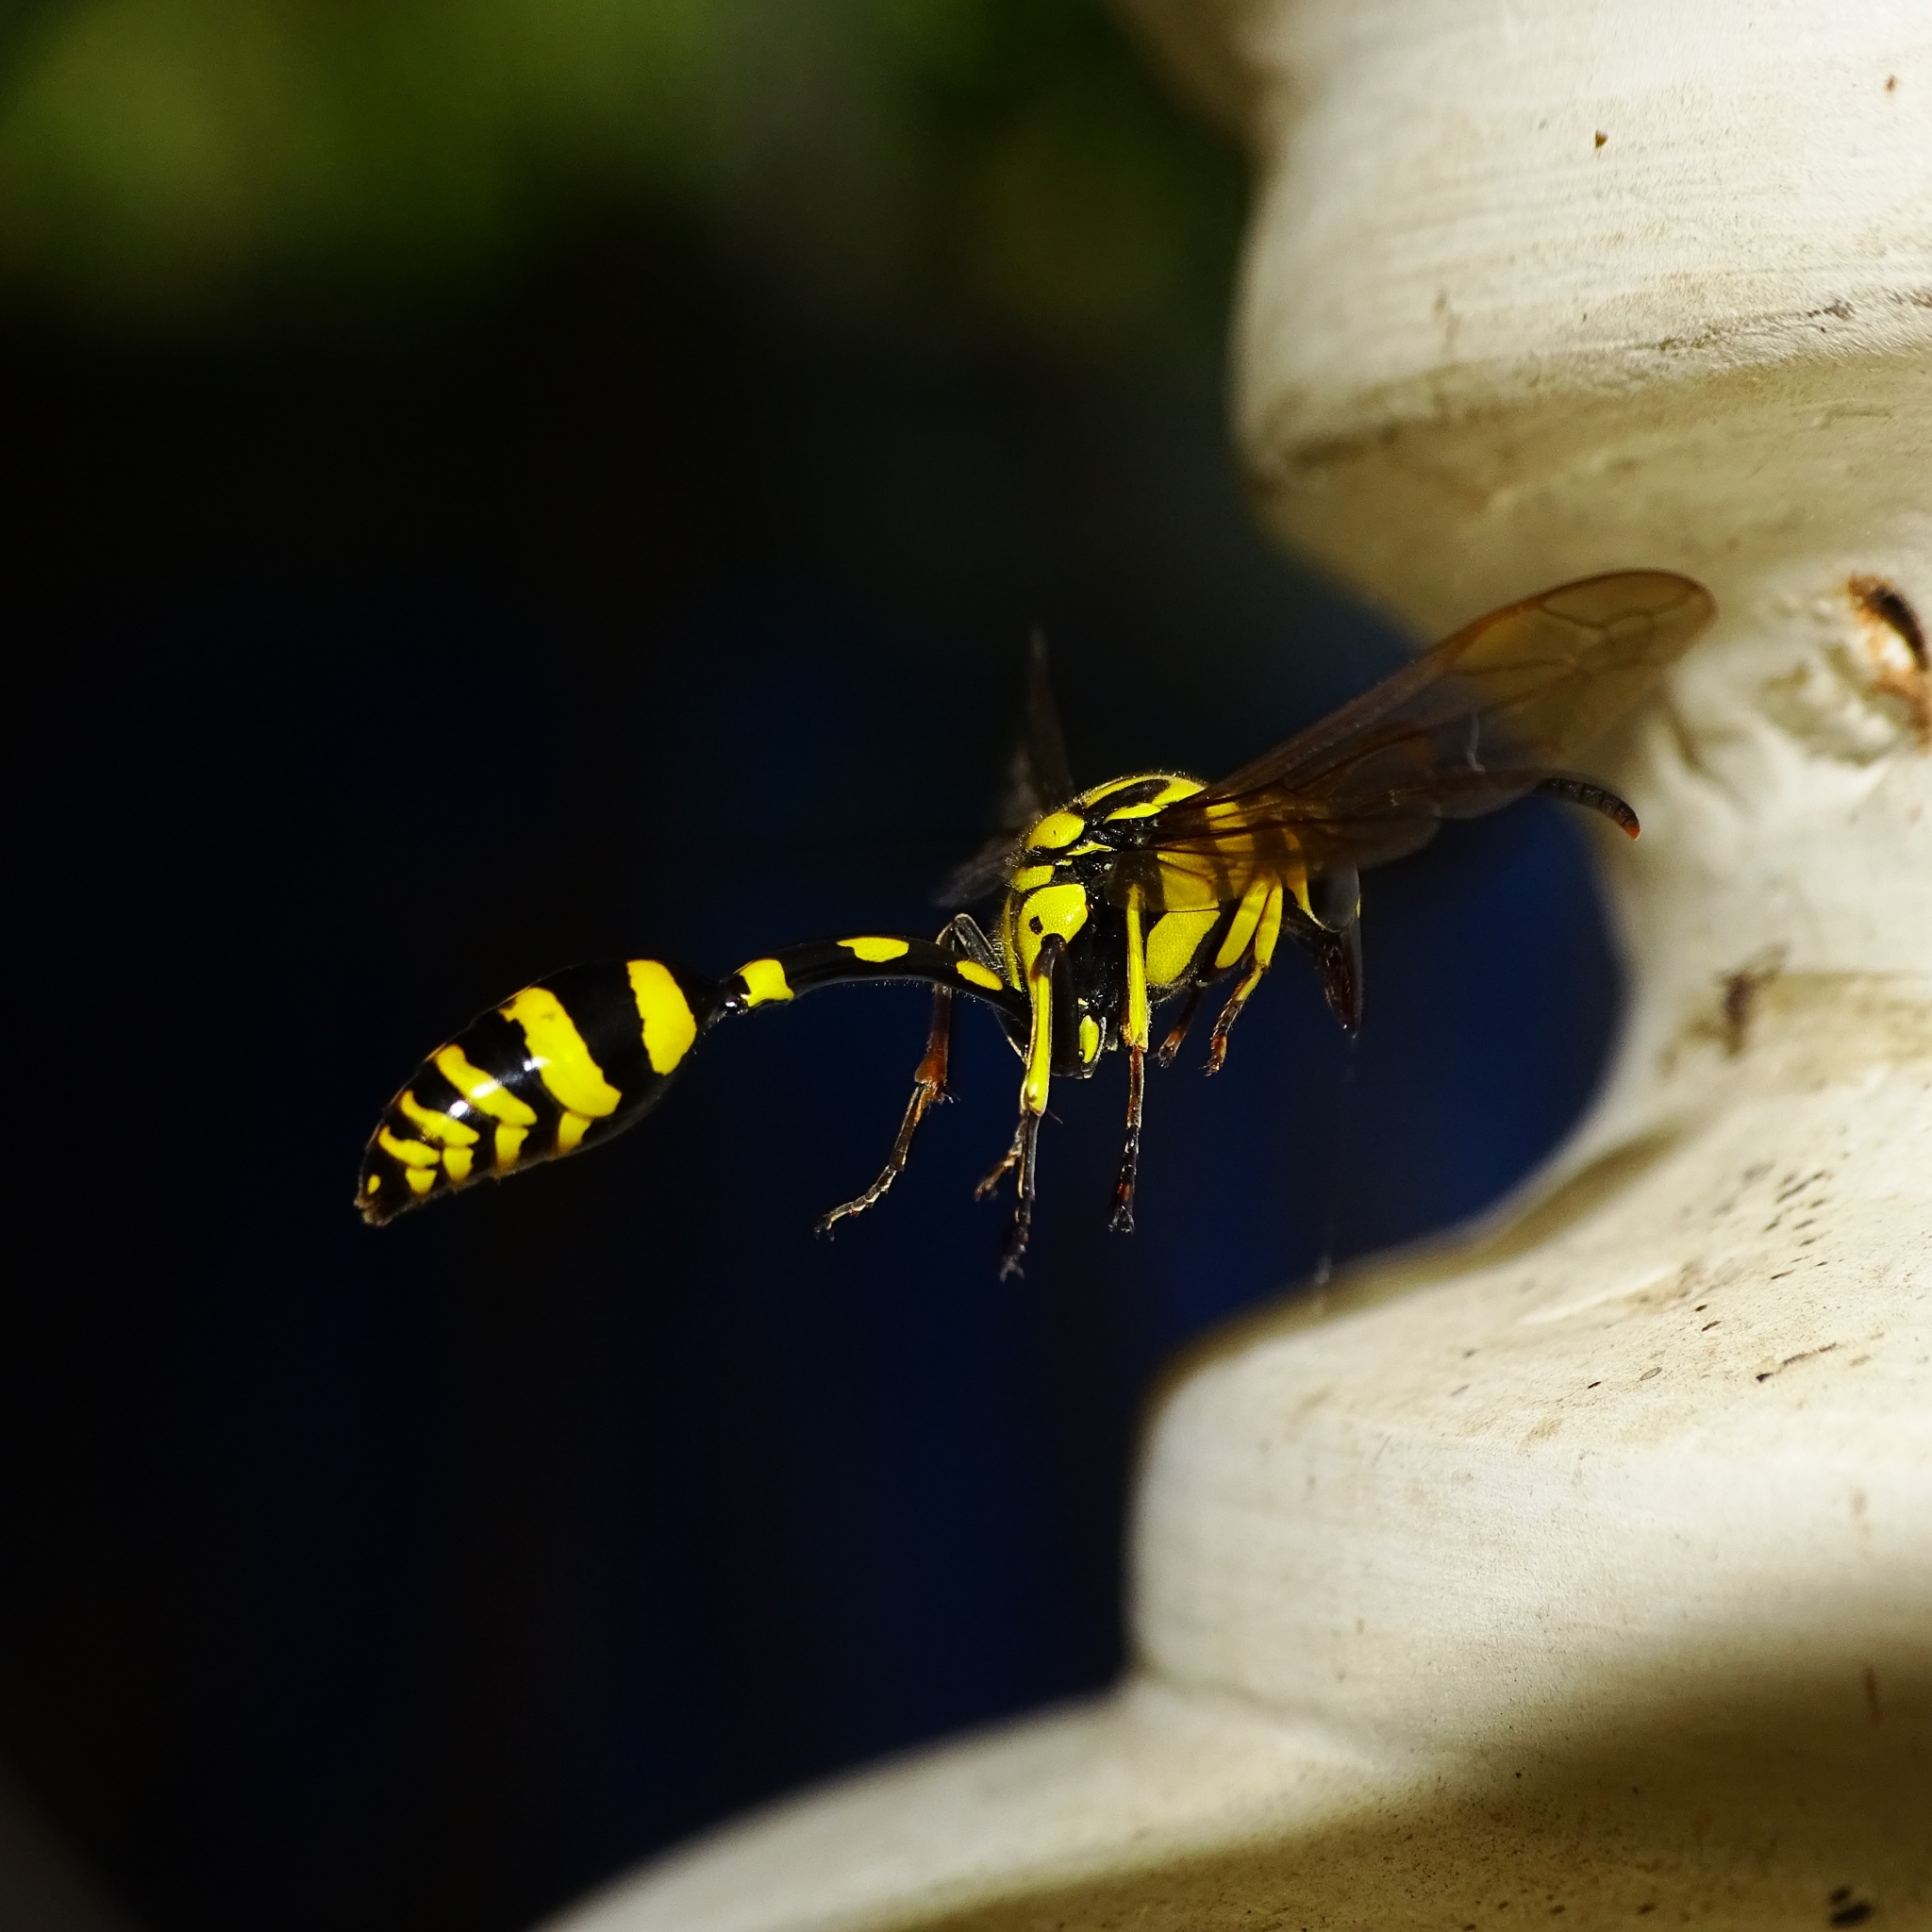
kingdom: Animalia
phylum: Arthropoda
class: Insecta
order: Hymenoptera
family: Eumenidae
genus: Phimenes
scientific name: Phimenes flavopictus
